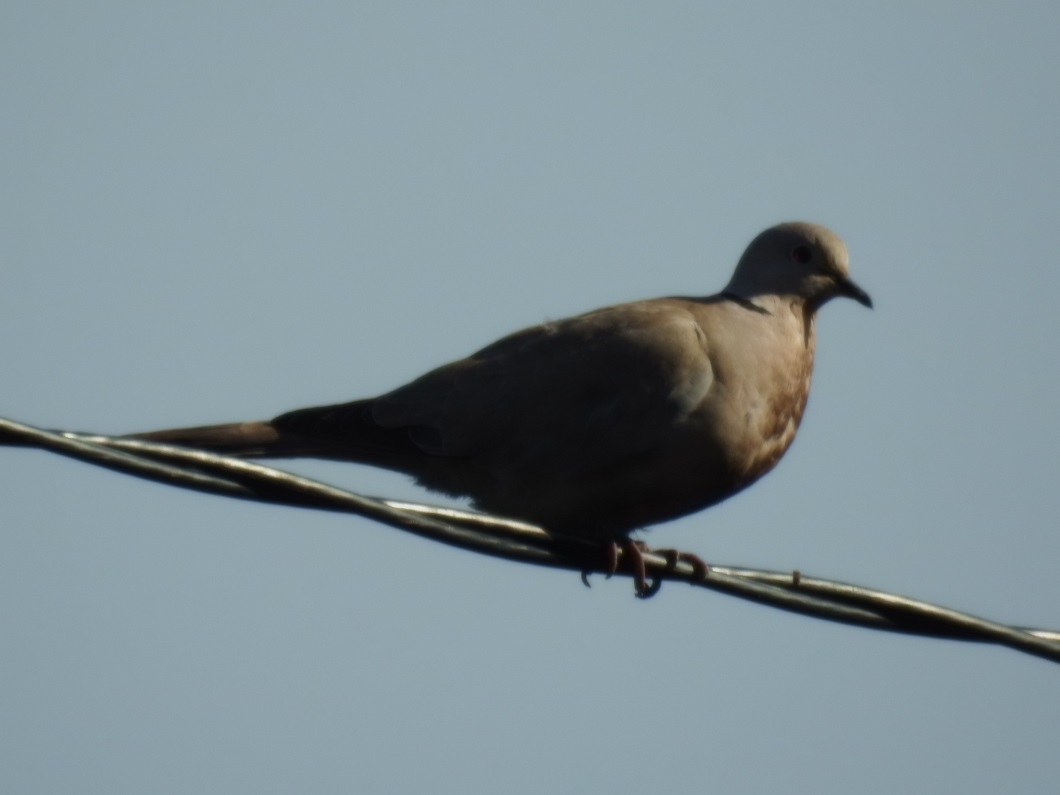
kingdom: Animalia
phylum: Chordata
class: Aves
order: Columbiformes
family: Columbidae
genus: Streptopelia
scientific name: Streptopelia decaocto
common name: Eurasian collared dove
